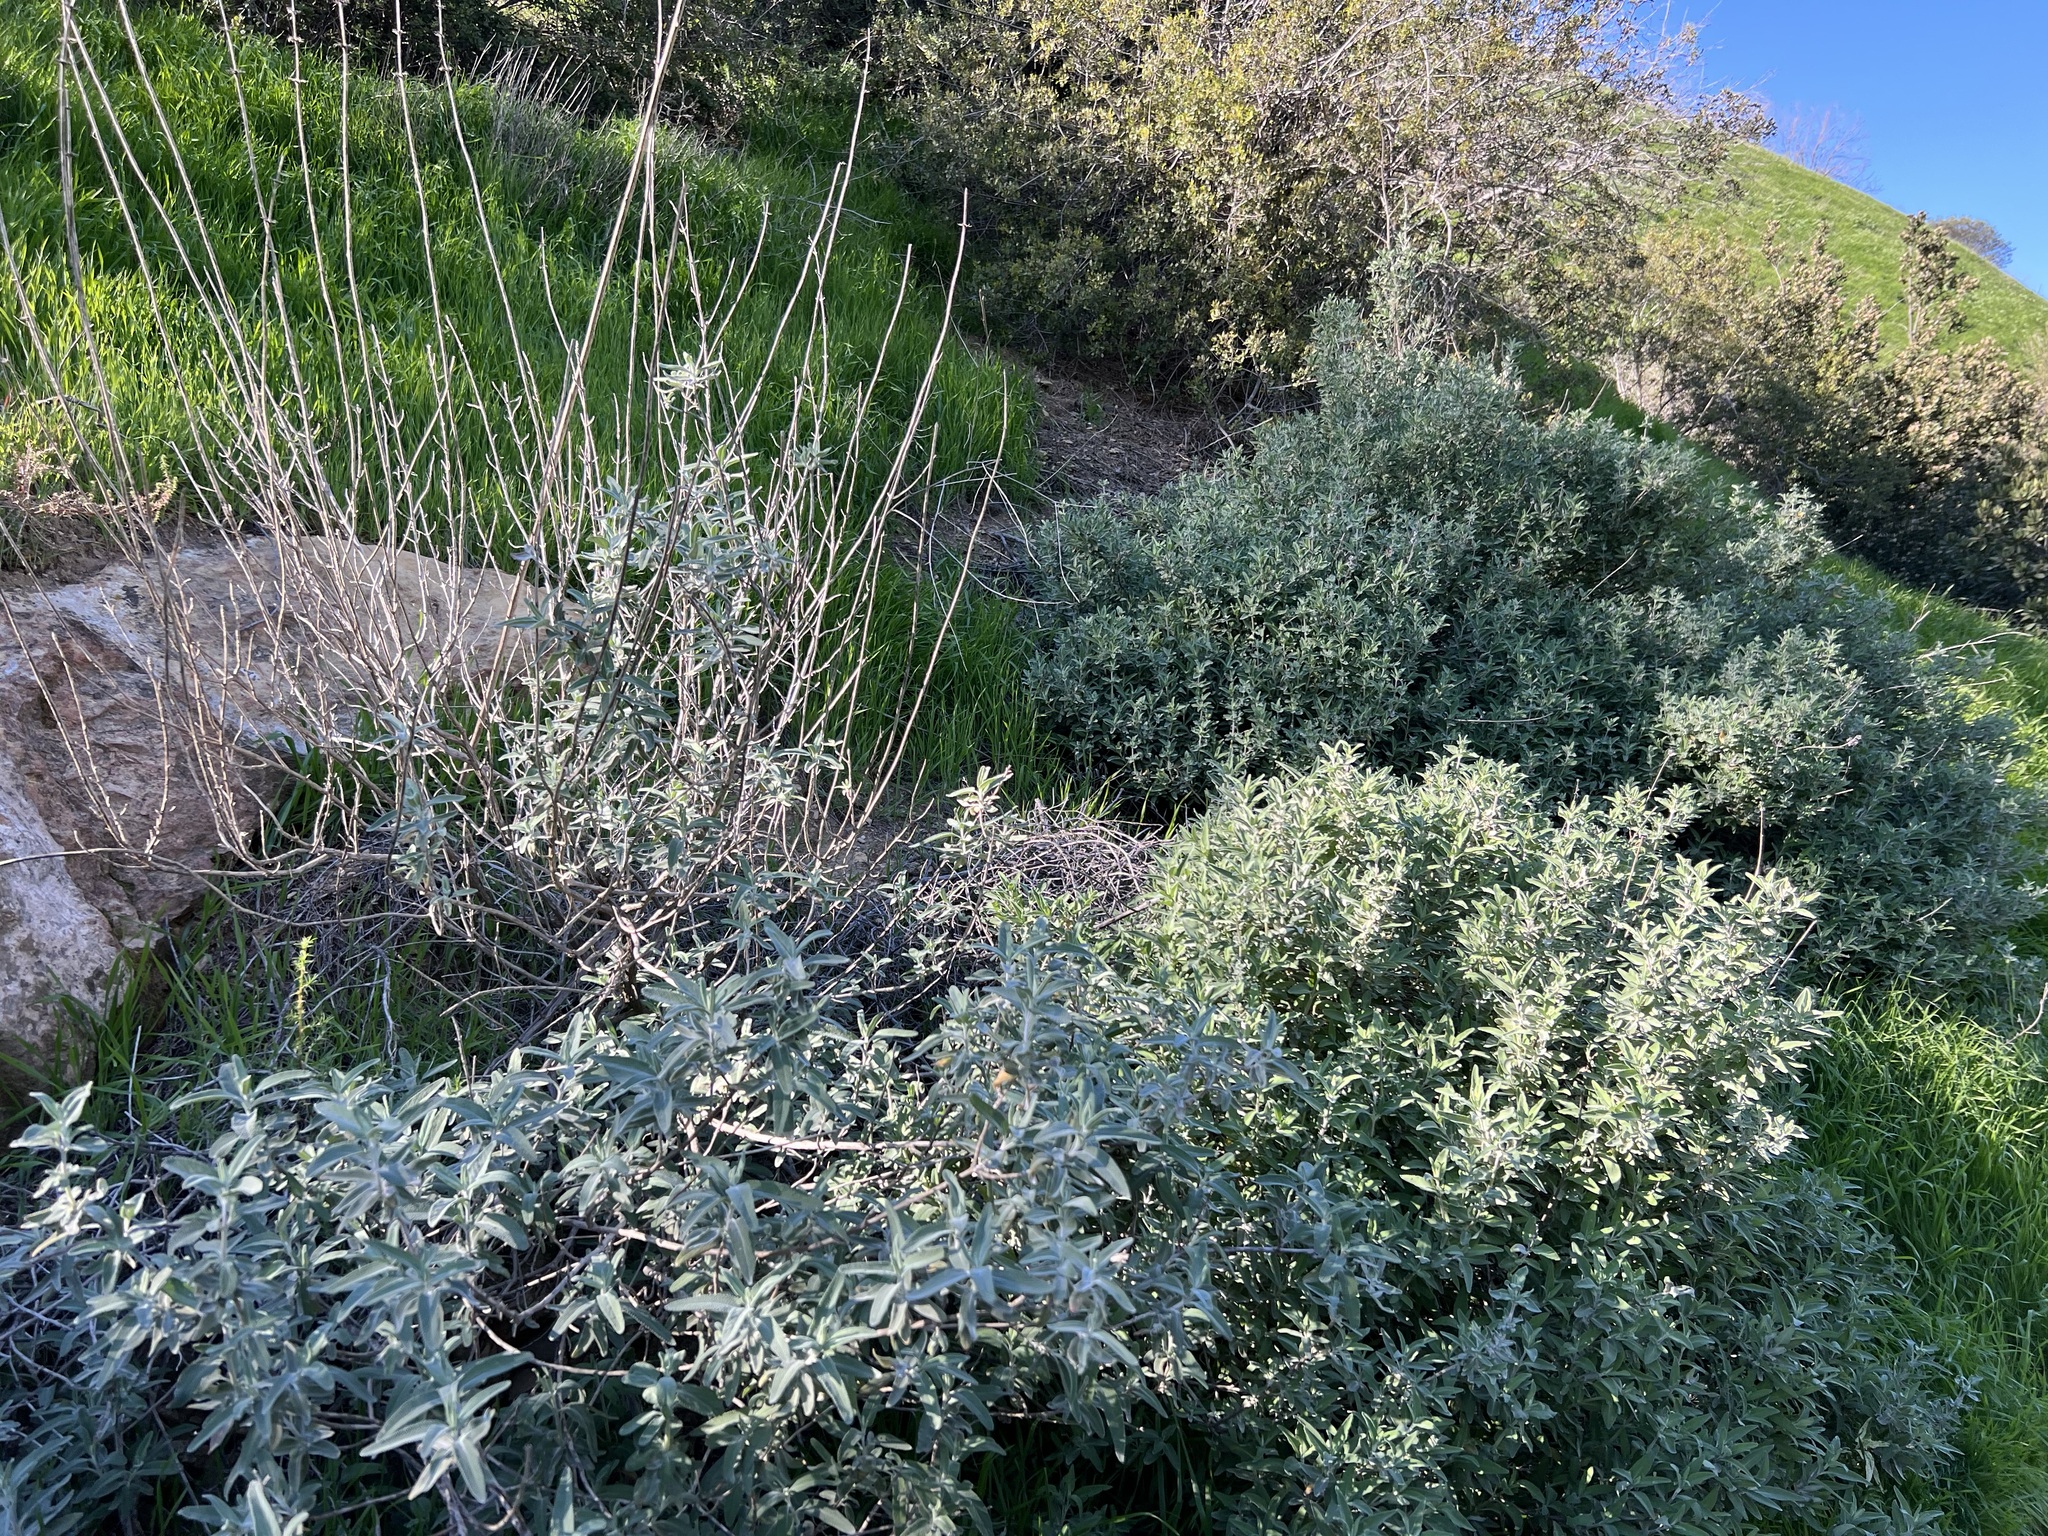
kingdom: Plantae
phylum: Tracheophyta
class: Magnoliopsida
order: Lamiales
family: Lamiaceae
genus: Salvia
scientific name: Salvia leucophylla
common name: Purple sage
